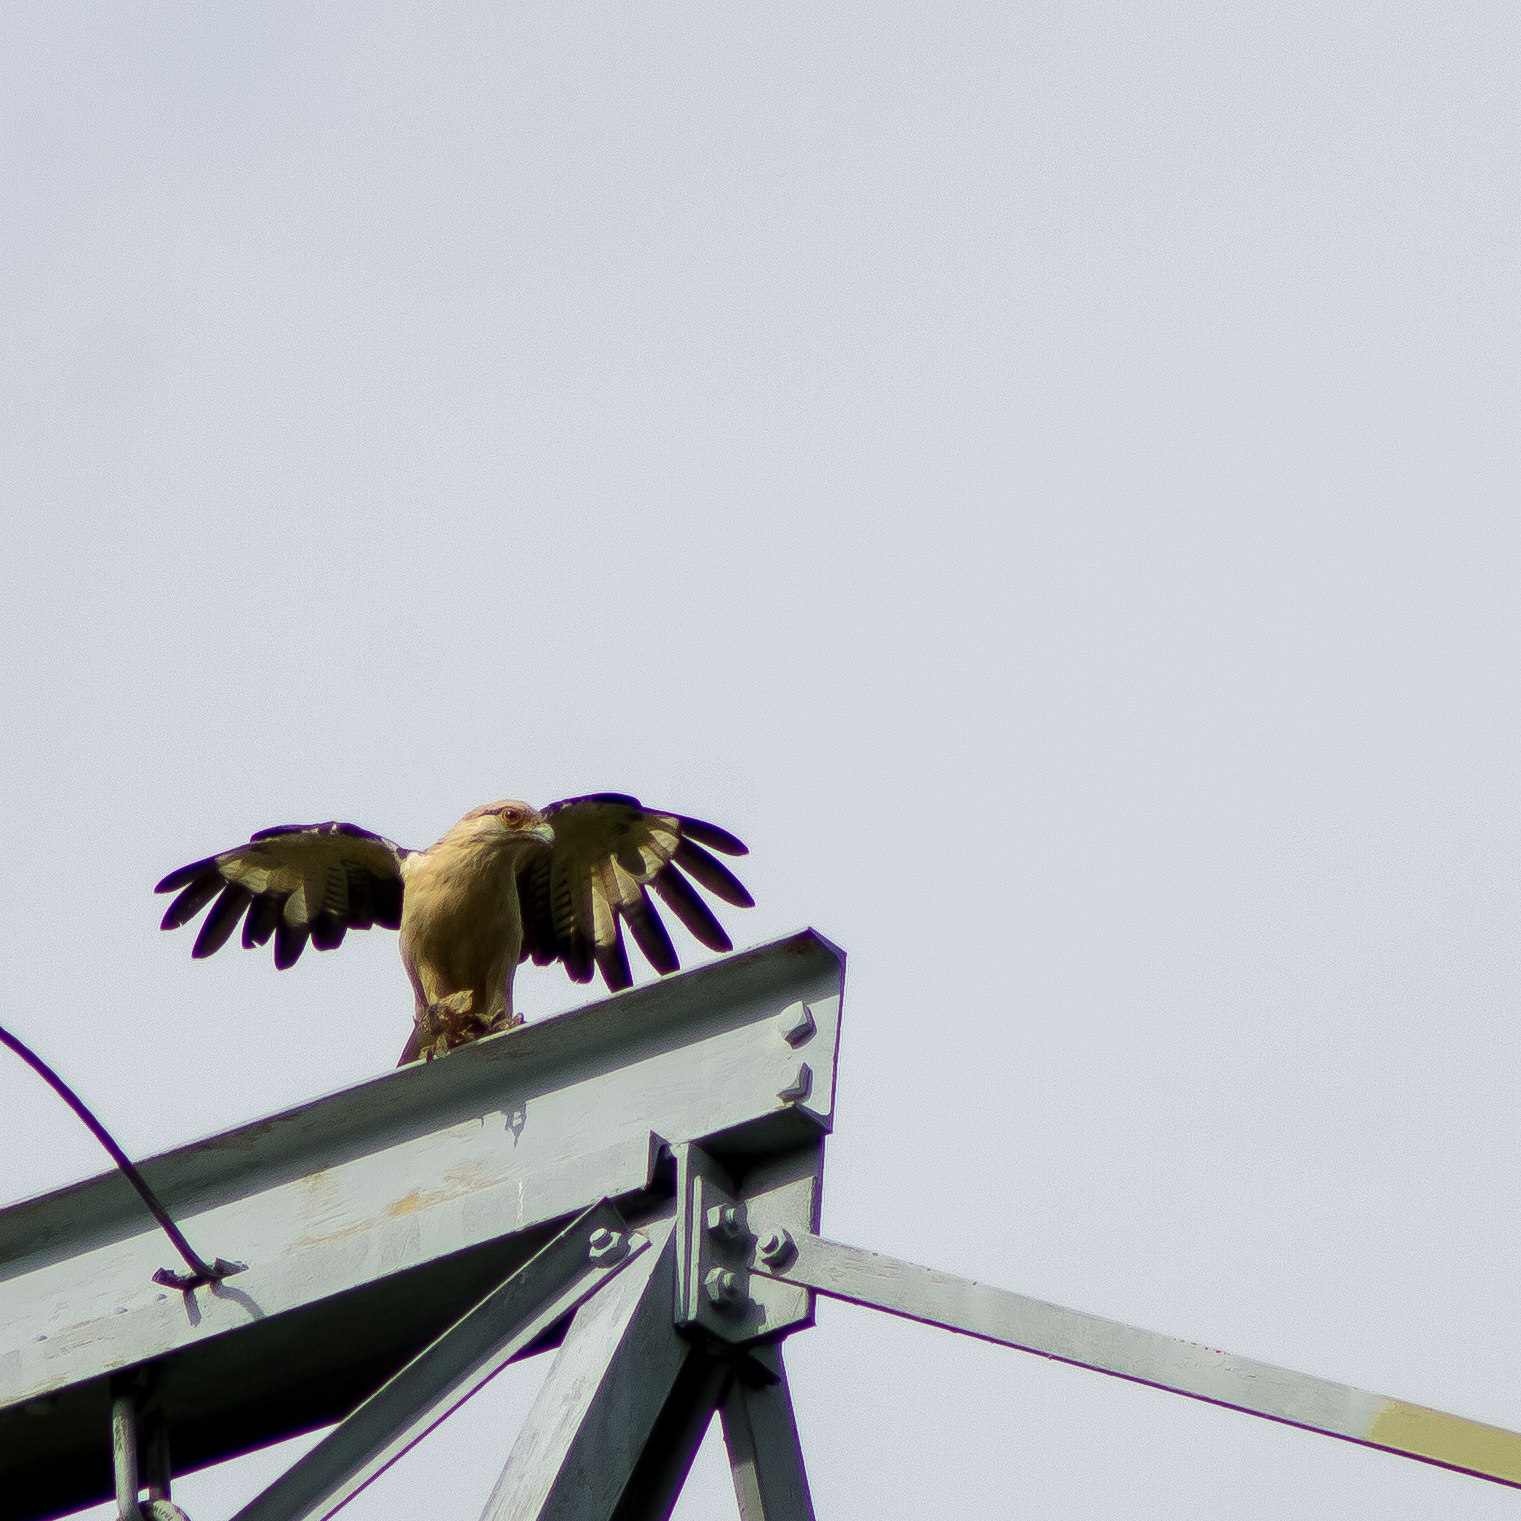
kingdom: Animalia
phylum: Chordata
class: Aves
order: Falconiformes
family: Falconidae
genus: Daptrius
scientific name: Daptrius
